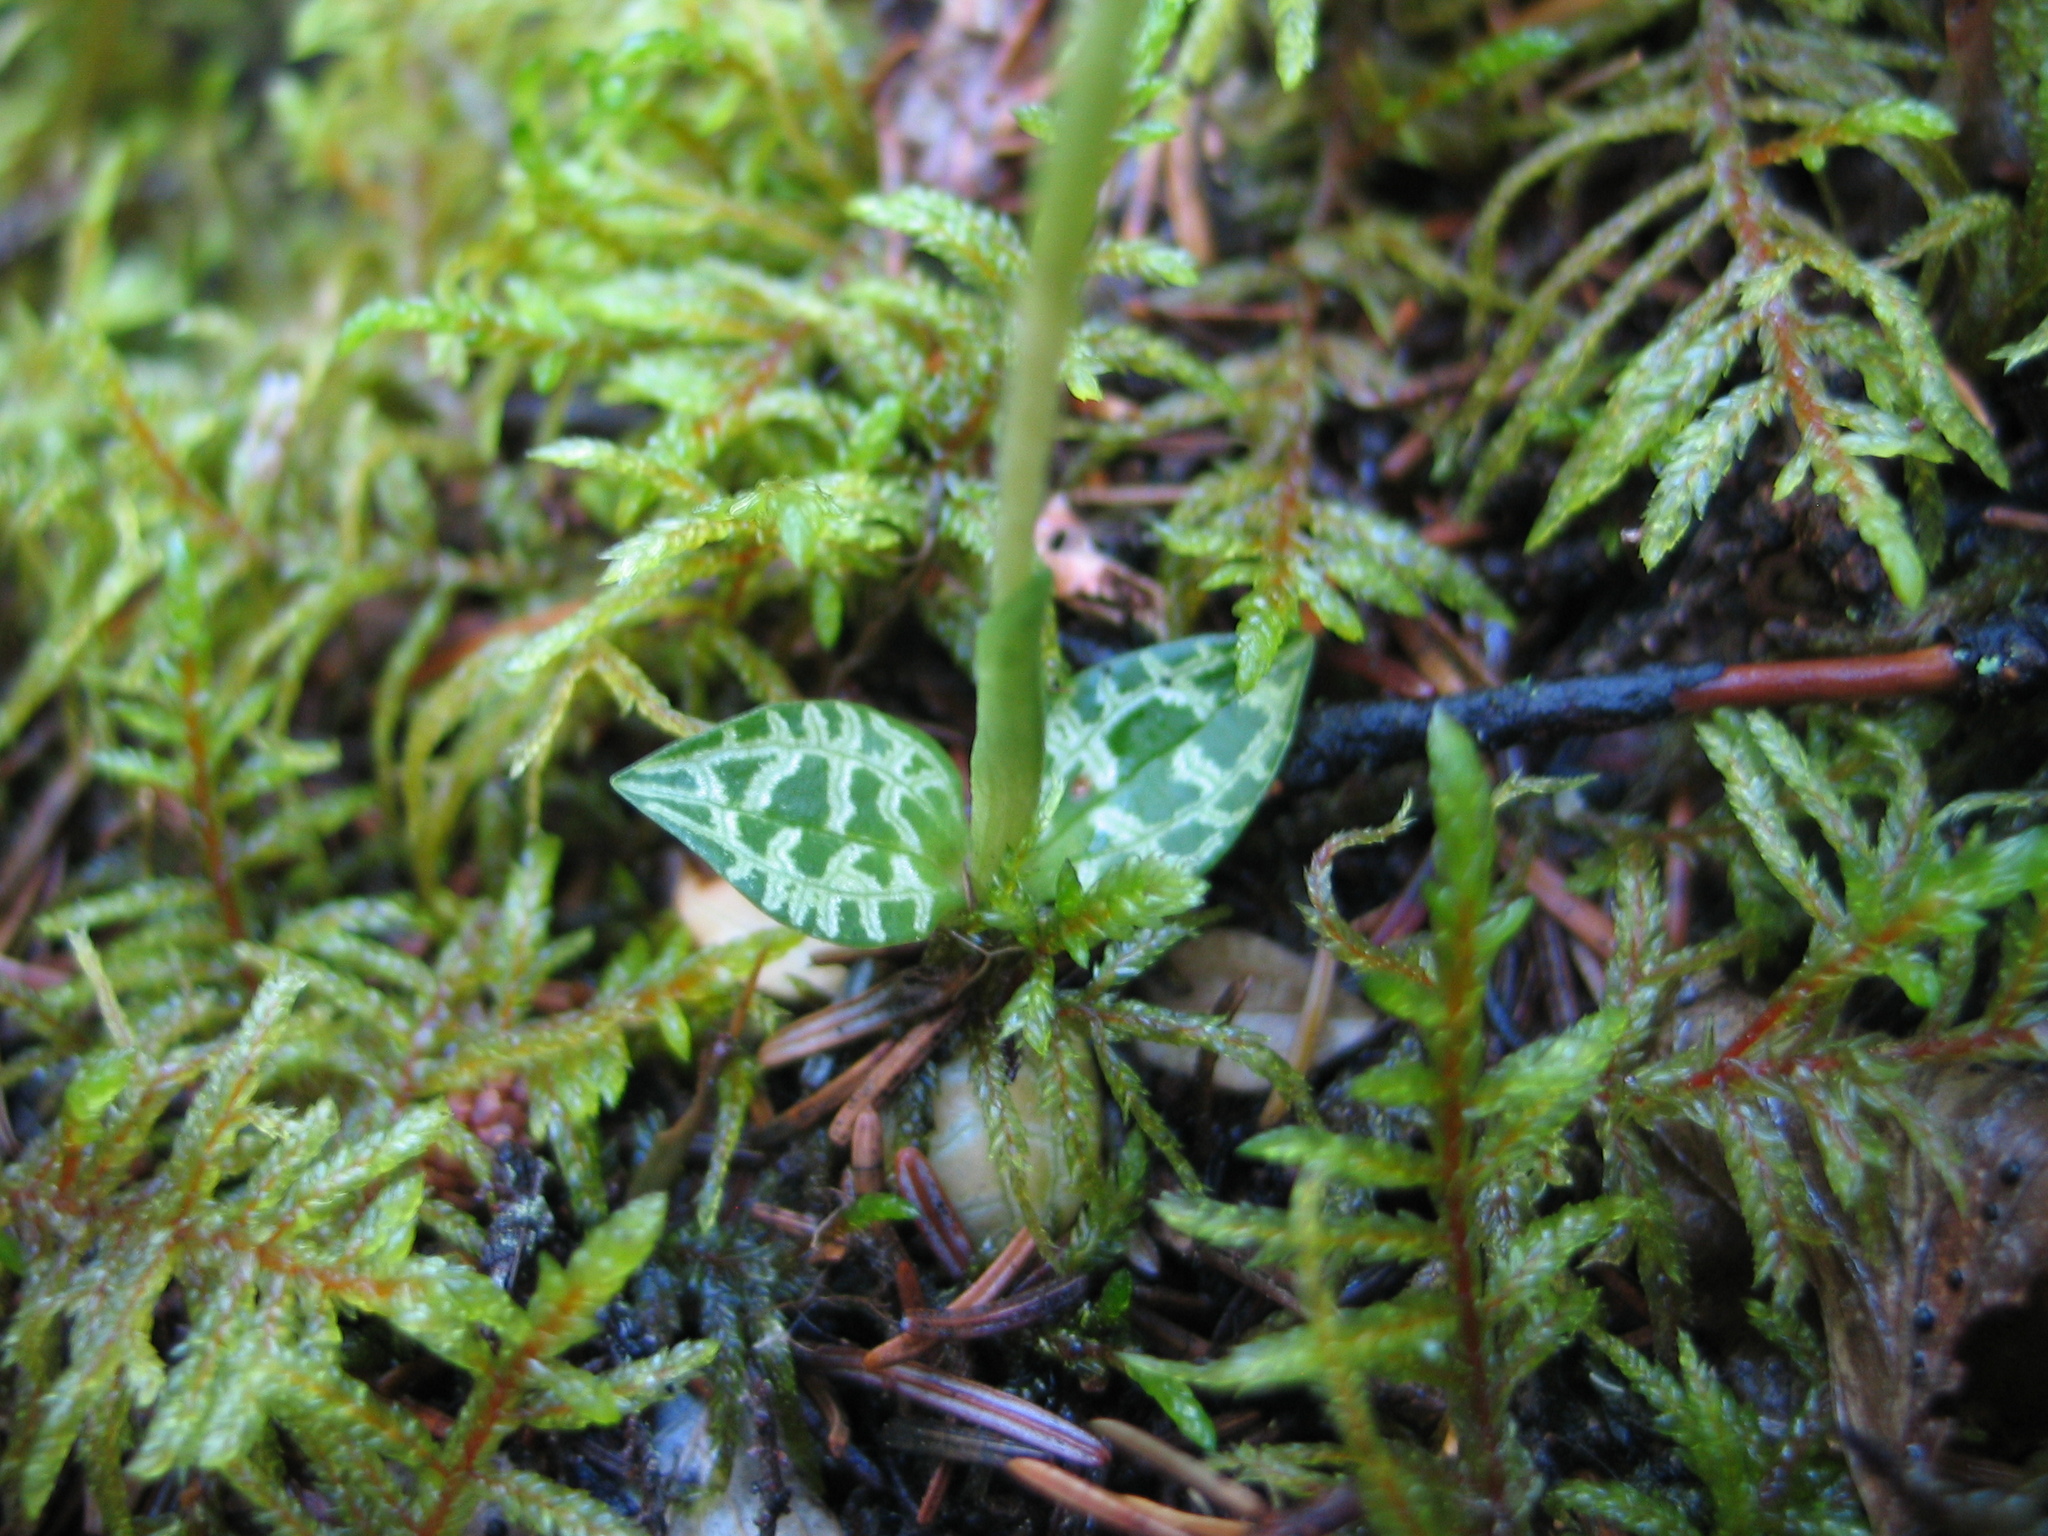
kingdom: Plantae
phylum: Tracheophyta
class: Liliopsida
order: Asparagales
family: Orchidaceae
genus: Goodyera
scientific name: Goodyera repens
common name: Creeping lady's-tresses
